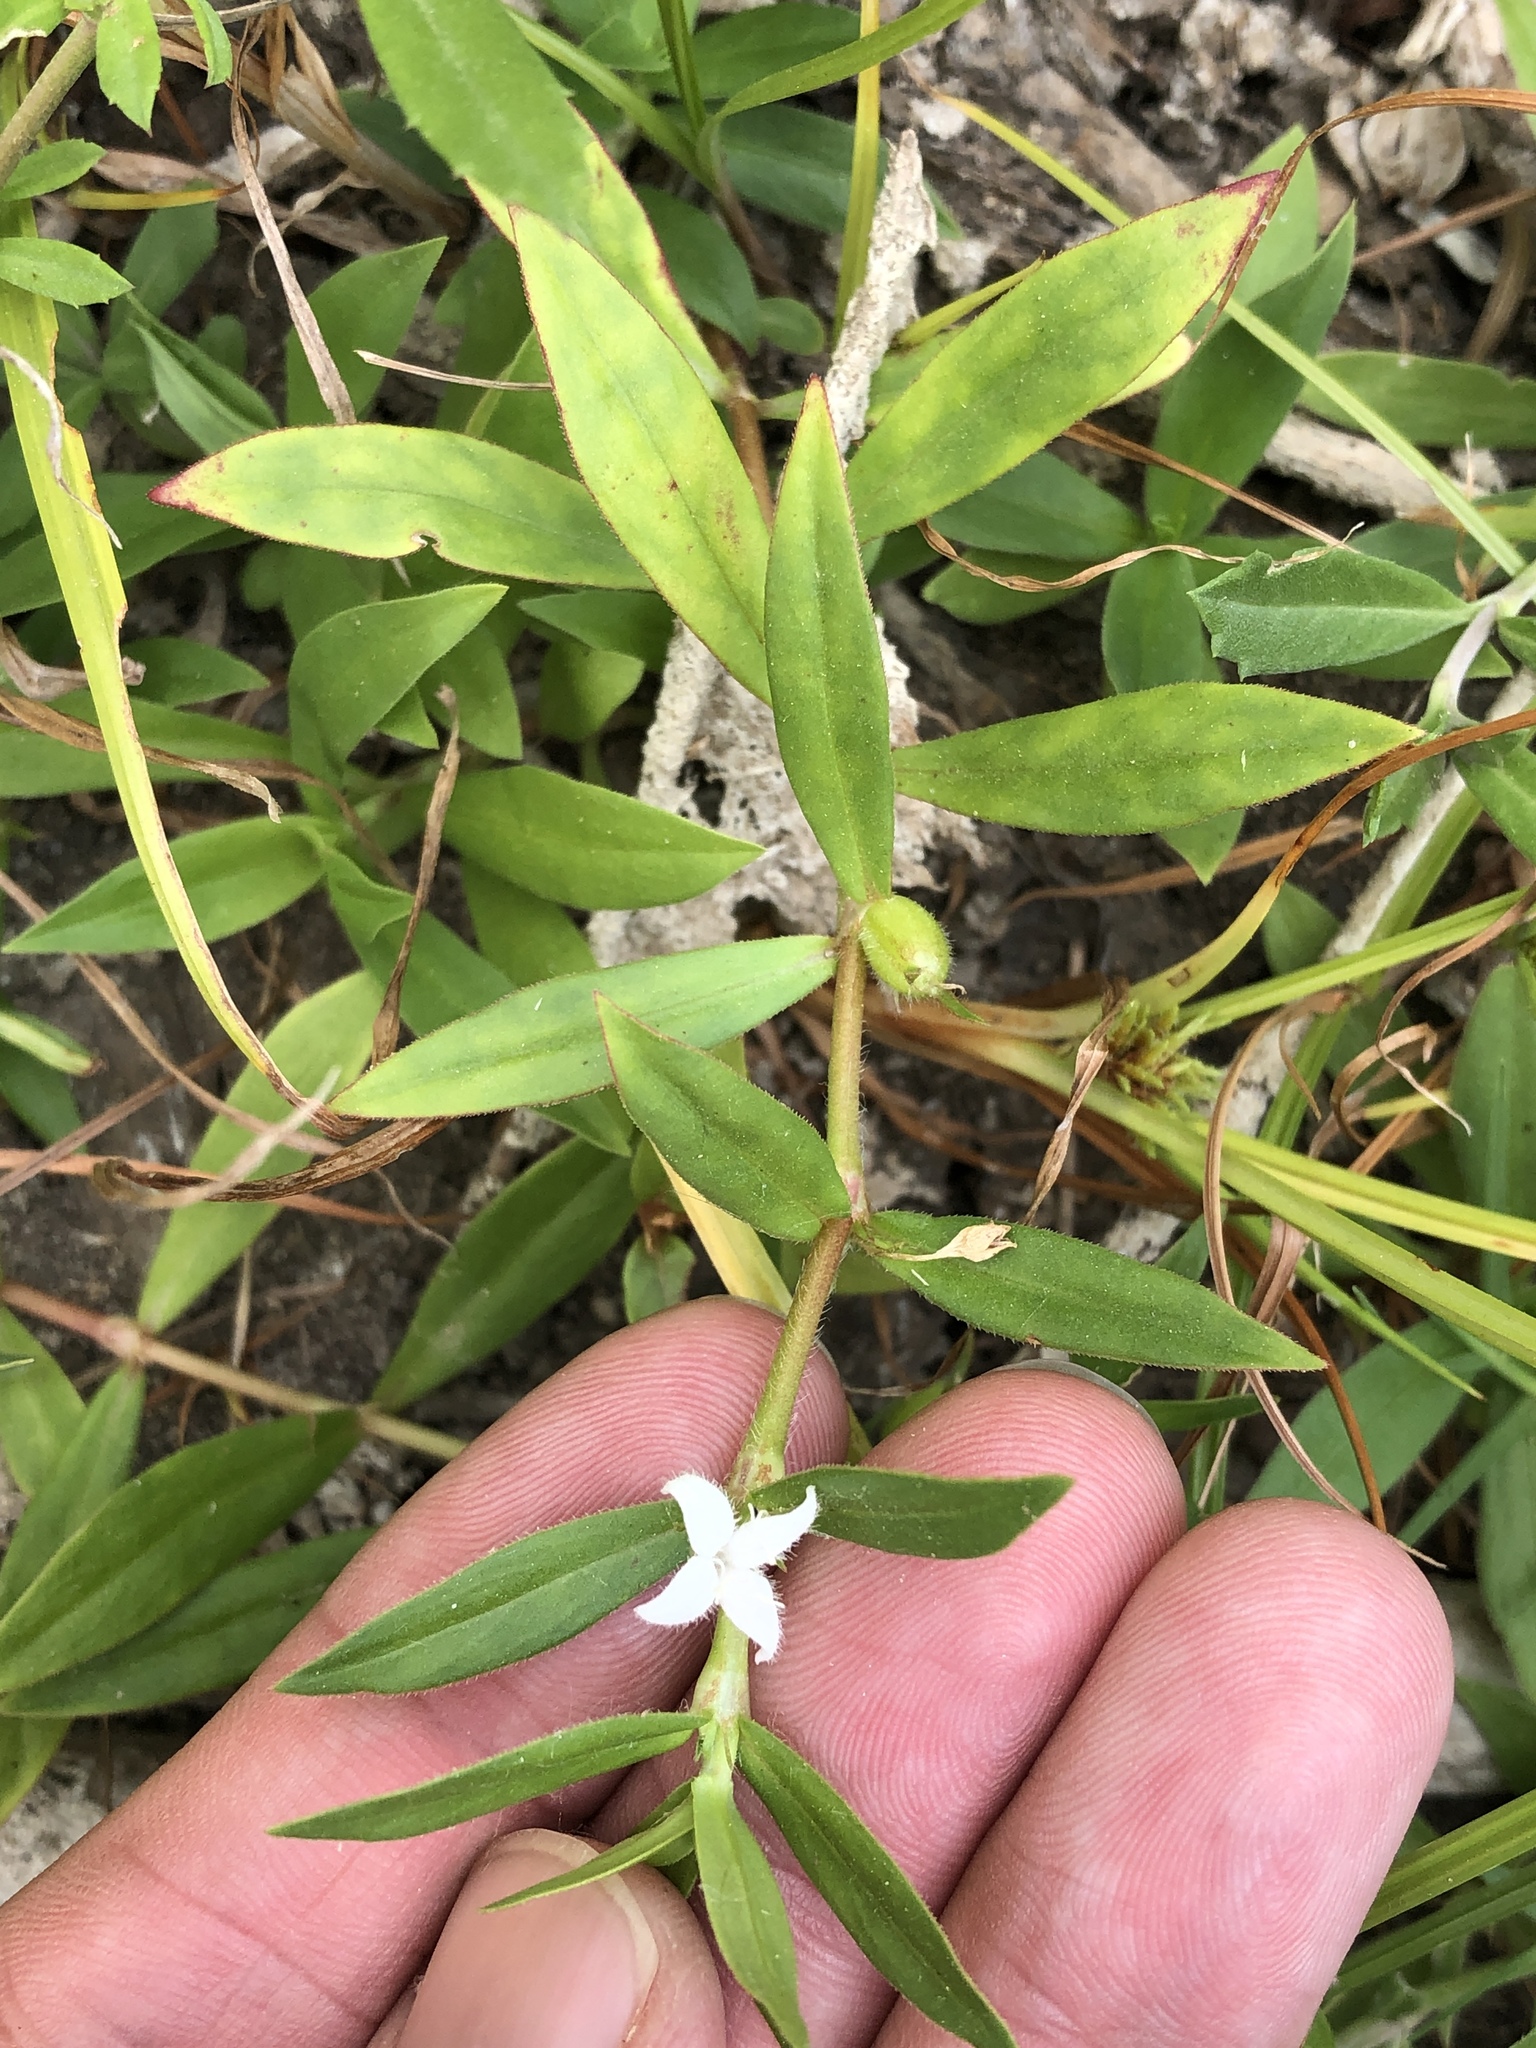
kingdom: Plantae
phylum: Tracheophyta
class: Magnoliopsida
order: Gentianales
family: Rubiaceae
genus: Diodia
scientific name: Diodia virginiana
